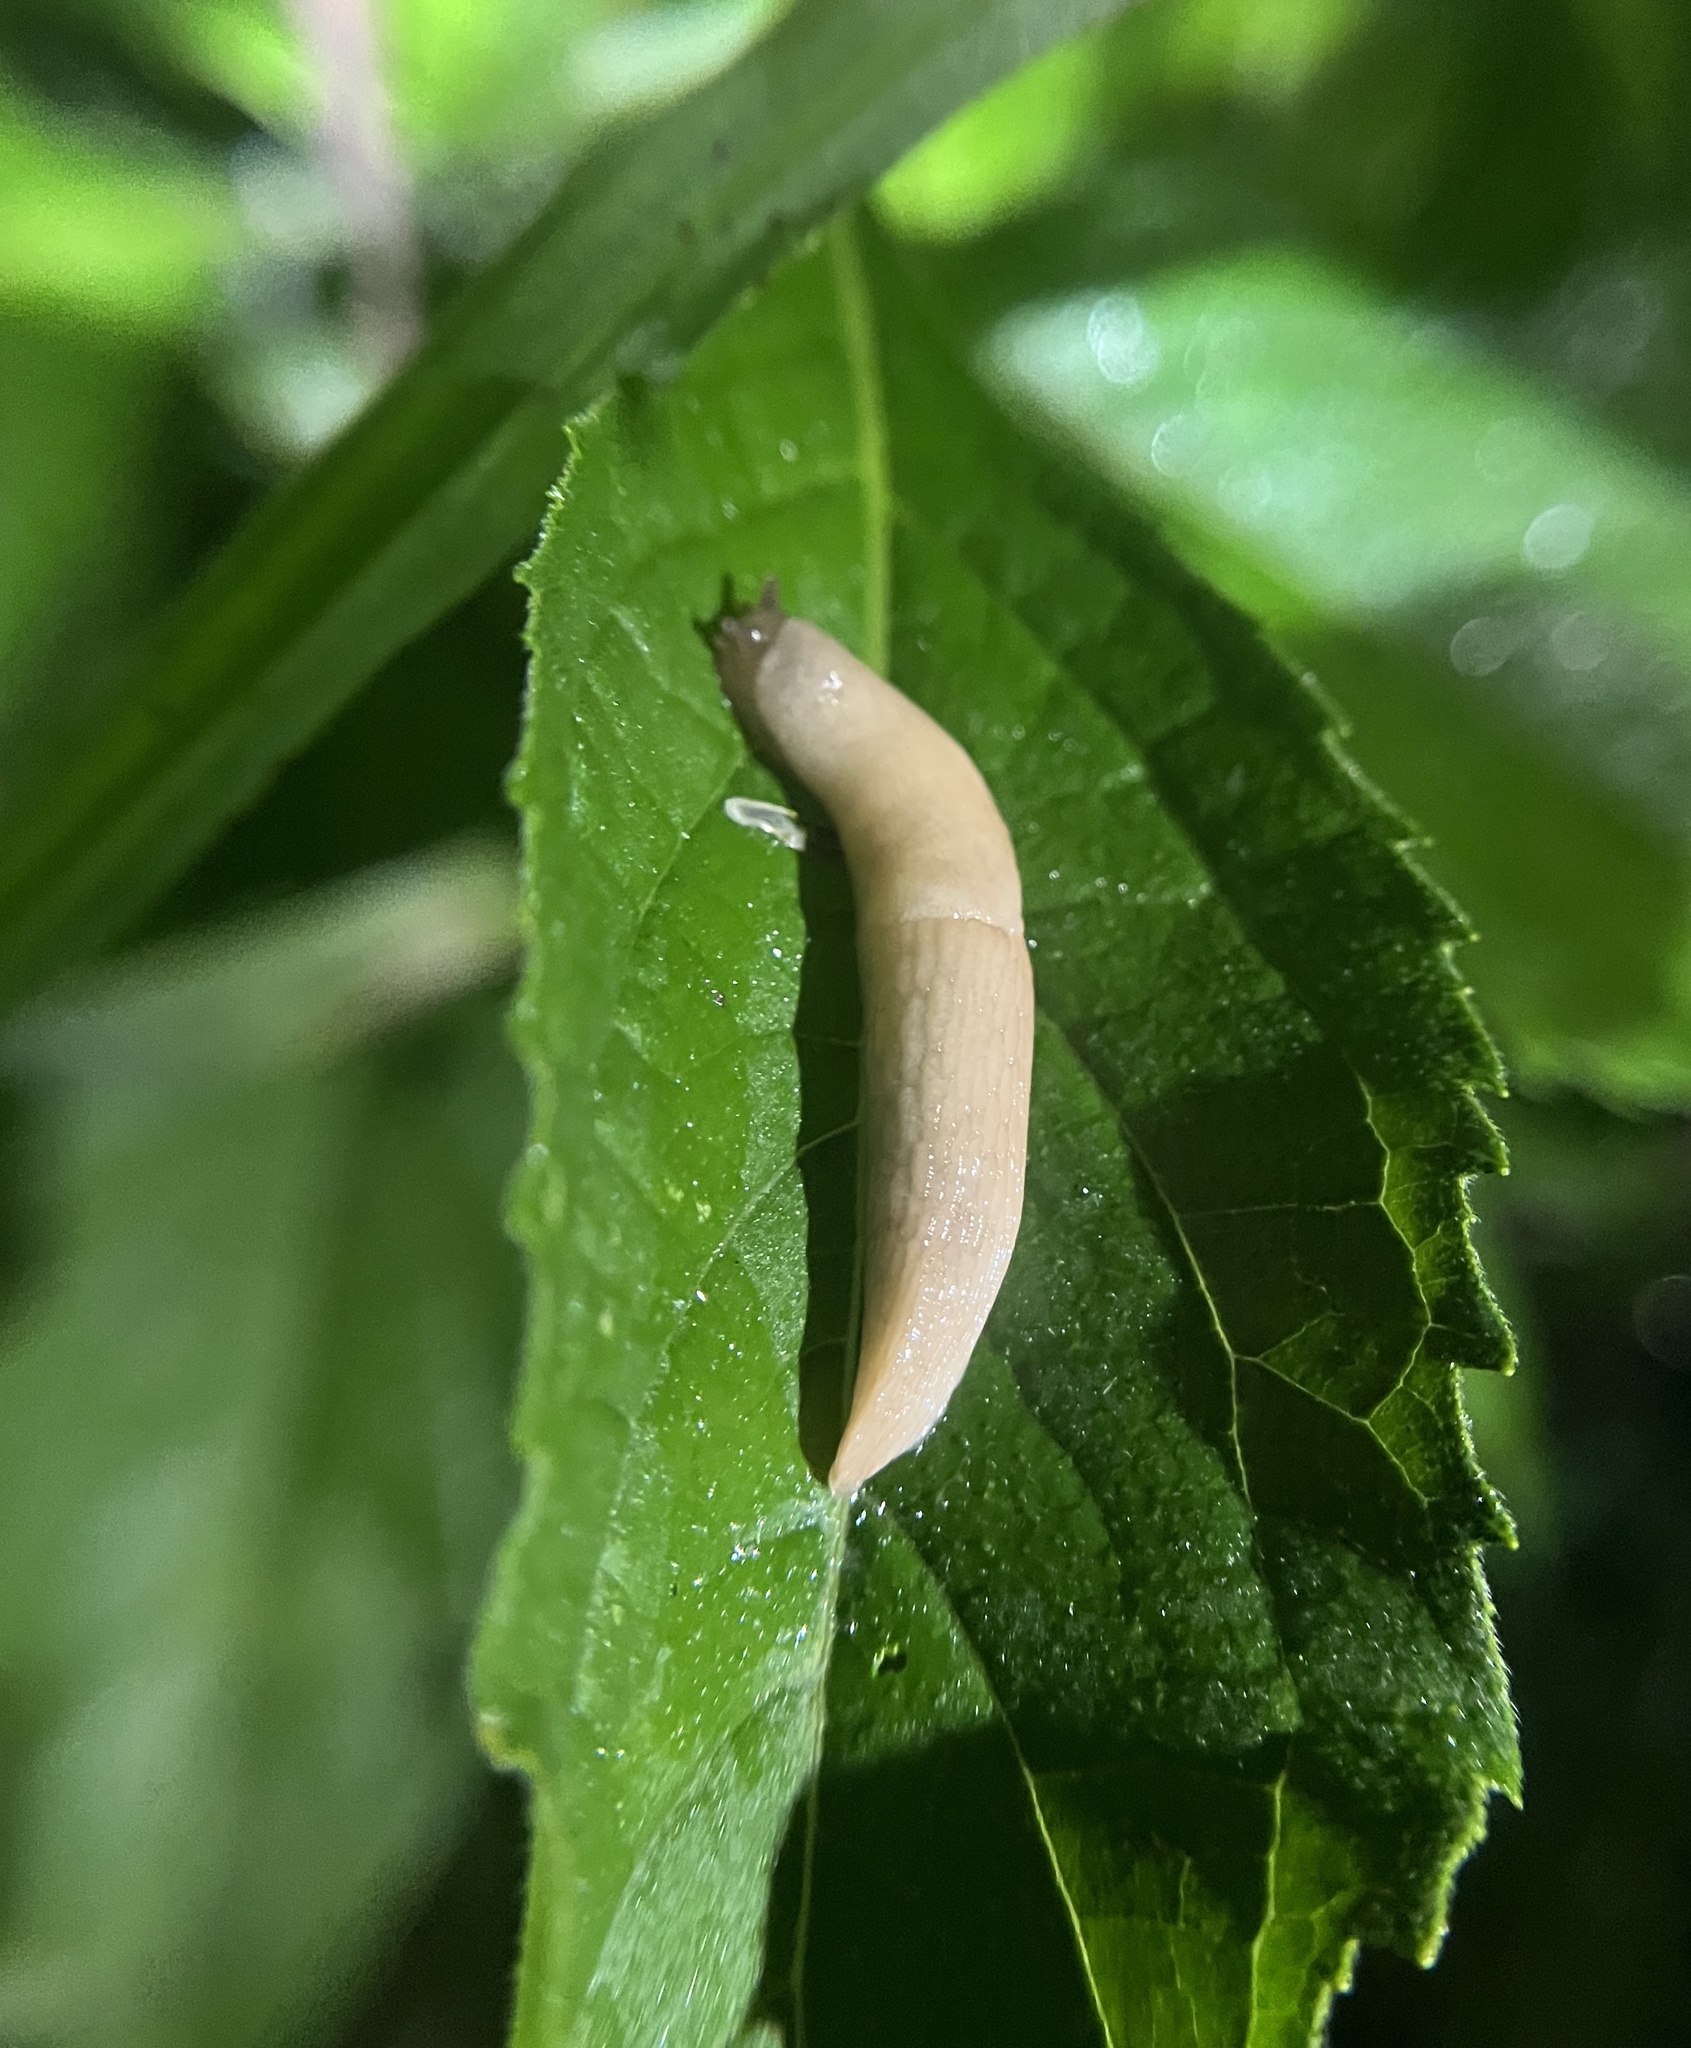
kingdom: Animalia
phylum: Mollusca
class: Gastropoda
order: Stylommatophora
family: Agriolimacidae
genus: Deroceras
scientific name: Deroceras reticulatum
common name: Gray field slug
